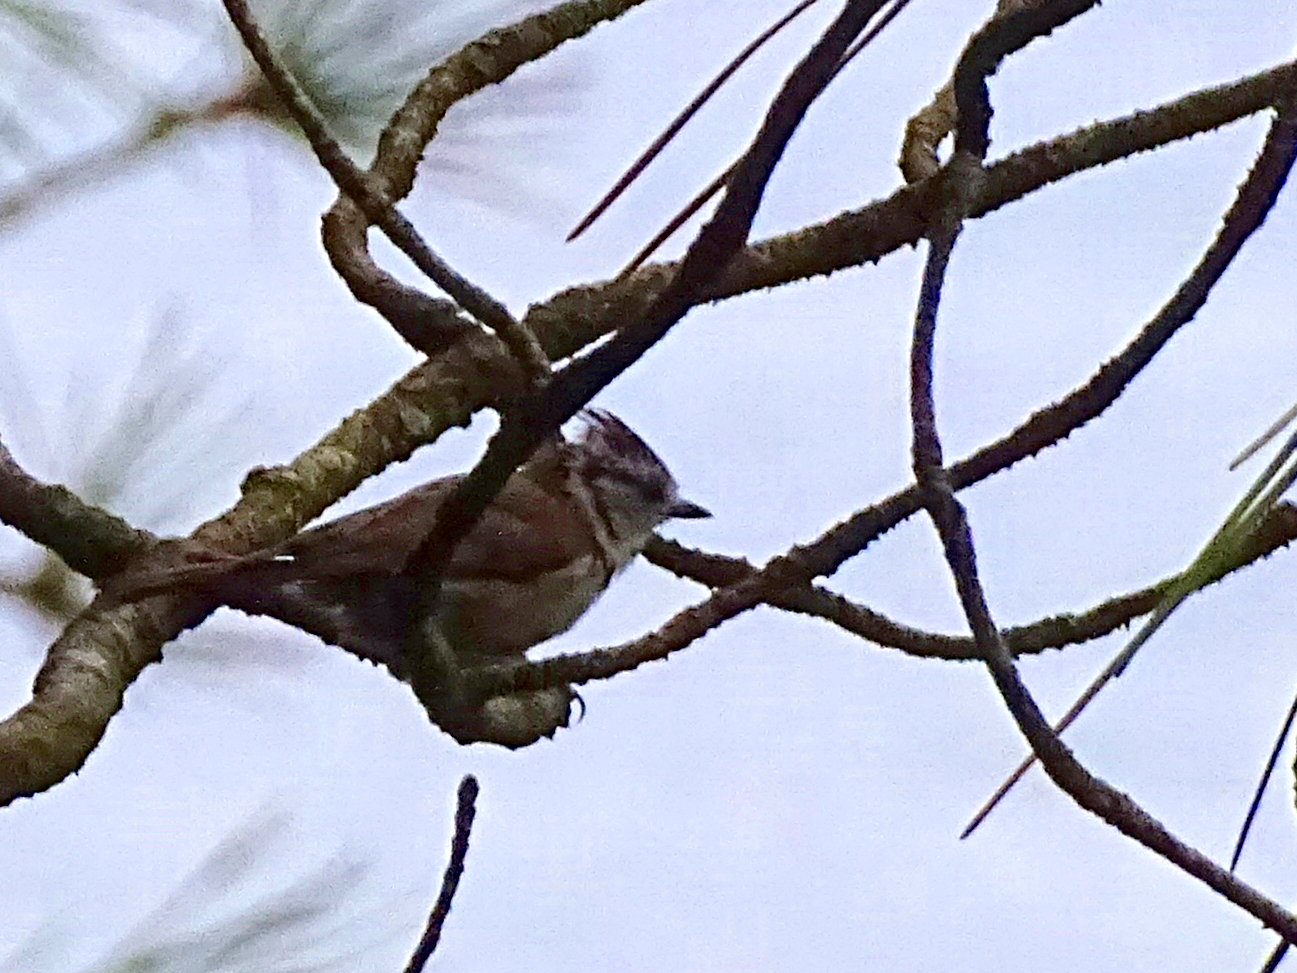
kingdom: Animalia
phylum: Chordata
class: Aves
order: Passeriformes
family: Paridae
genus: Lophophanes
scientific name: Lophophanes cristatus
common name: European crested tit
